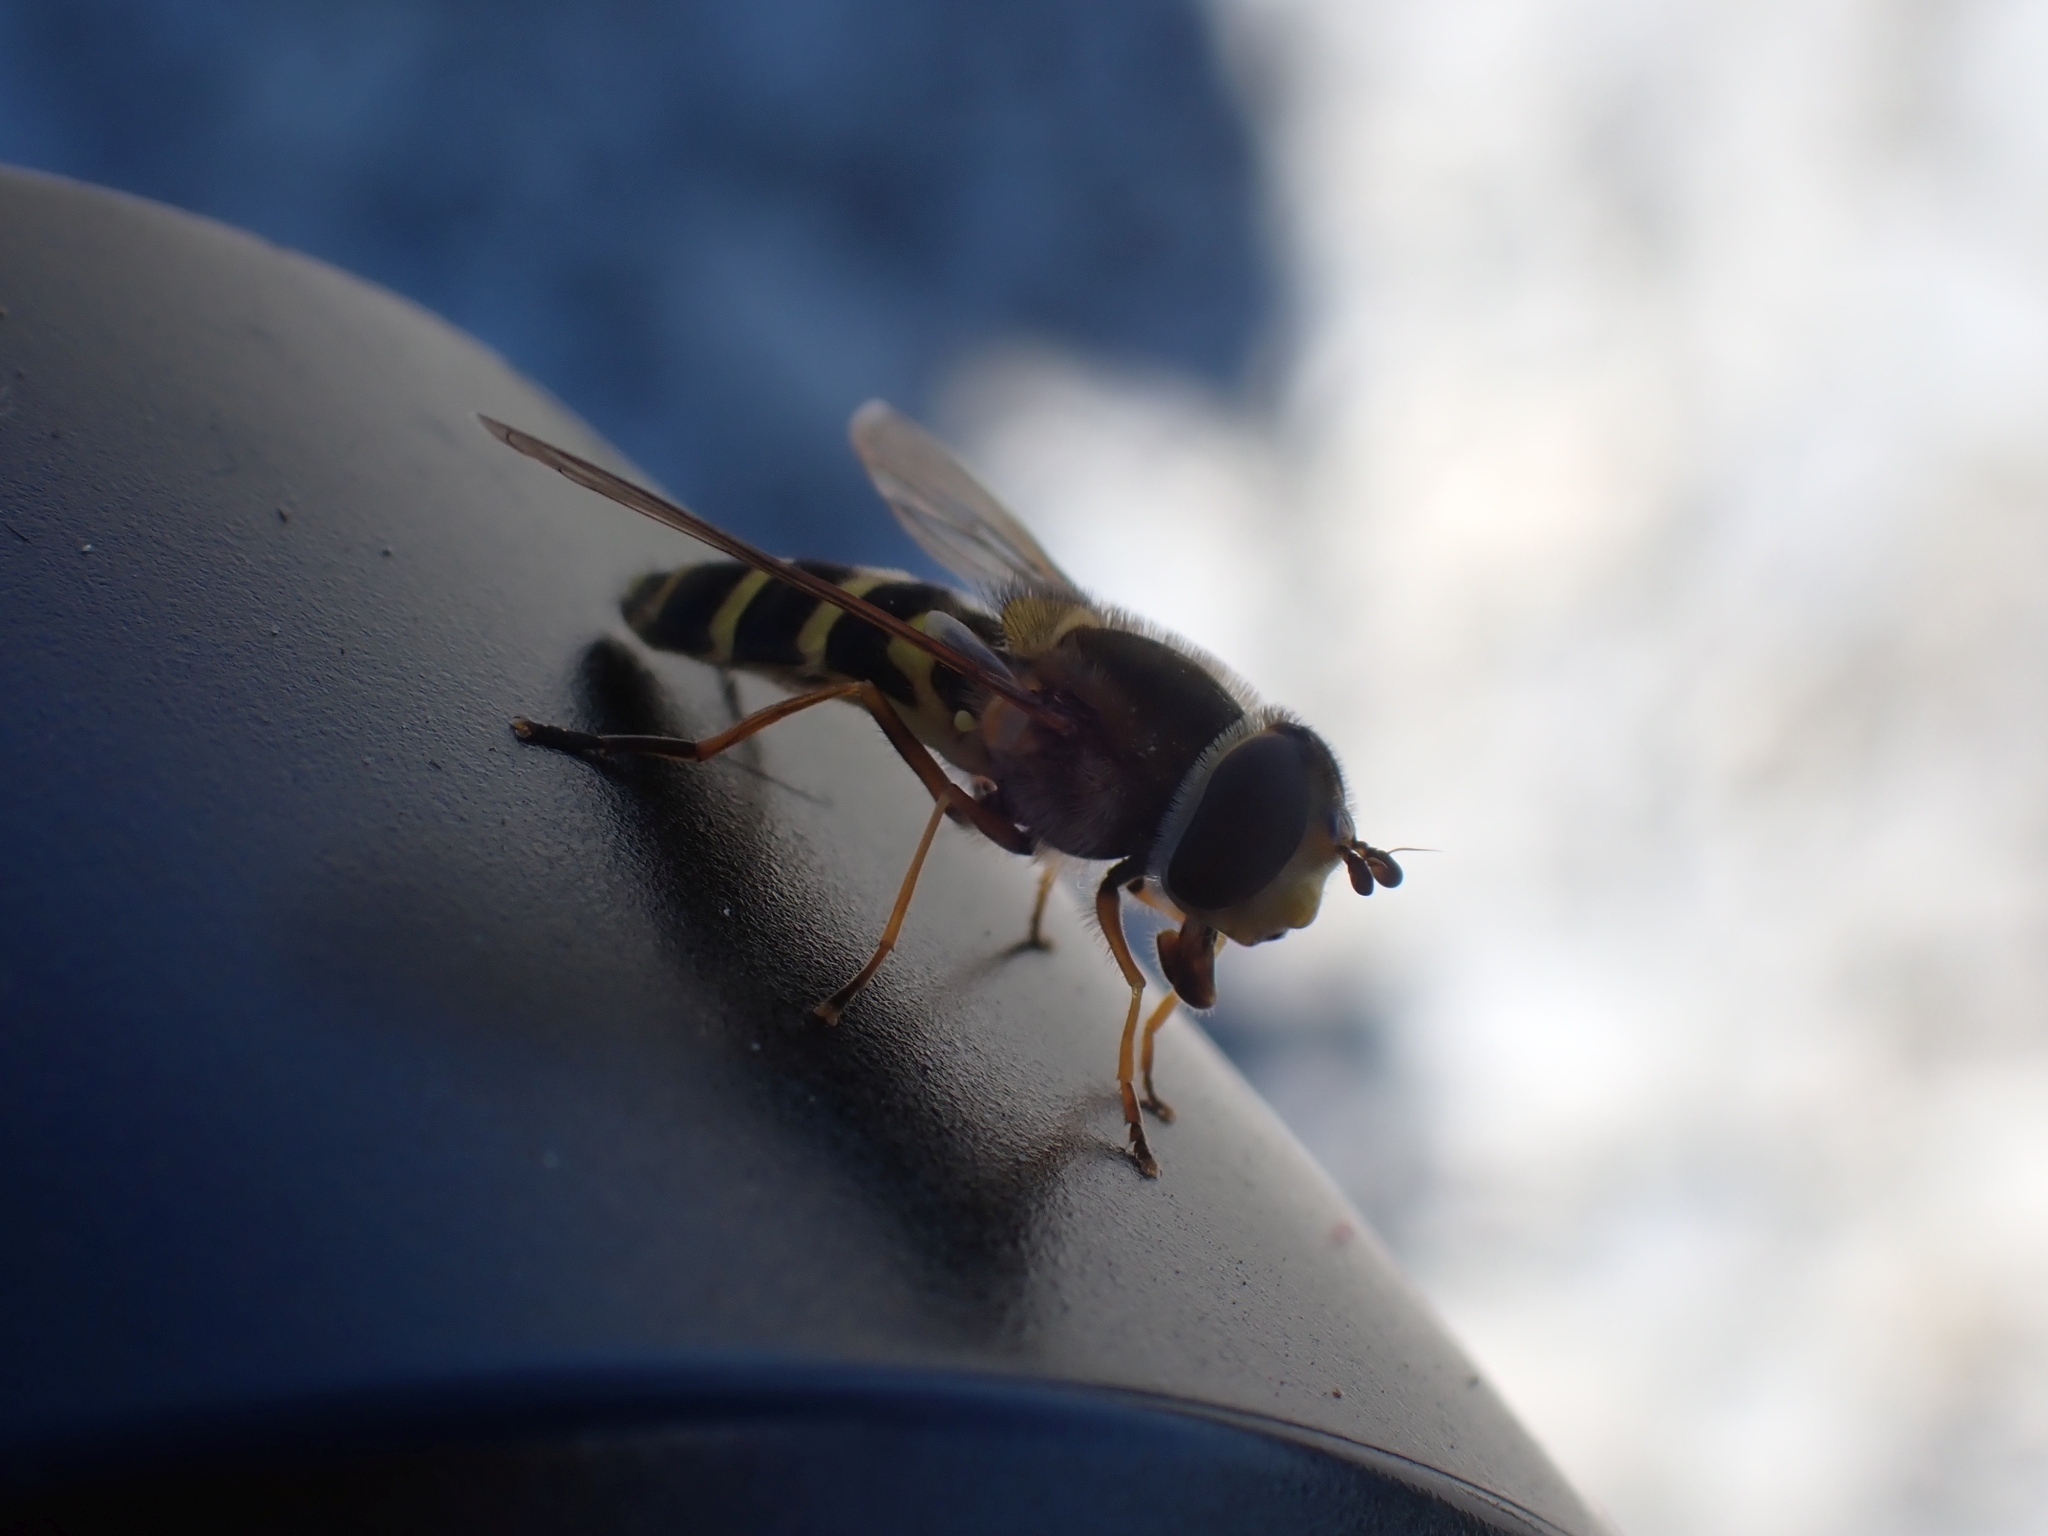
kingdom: Animalia
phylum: Arthropoda
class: Insecta
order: Diptera
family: Syrphidae
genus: Syrphus
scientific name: Syrphus ribesii
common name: Common flower fly
